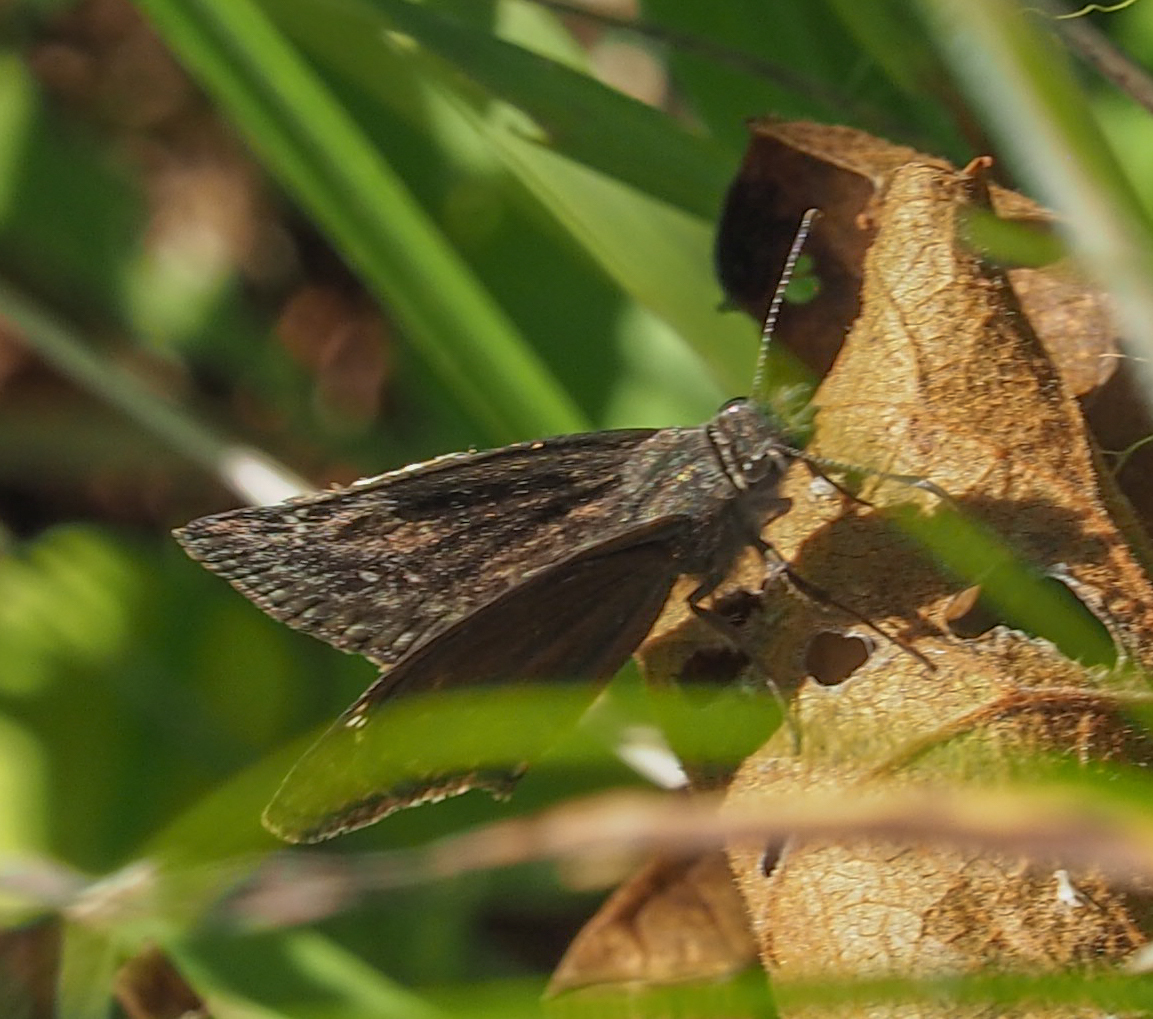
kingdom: Animalia
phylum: Arthropoda
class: Insecta
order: Lepidoptera
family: Hesperiidae
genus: Erynnis
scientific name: Erynnis baptisiae
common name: Wild indigo duskywing
